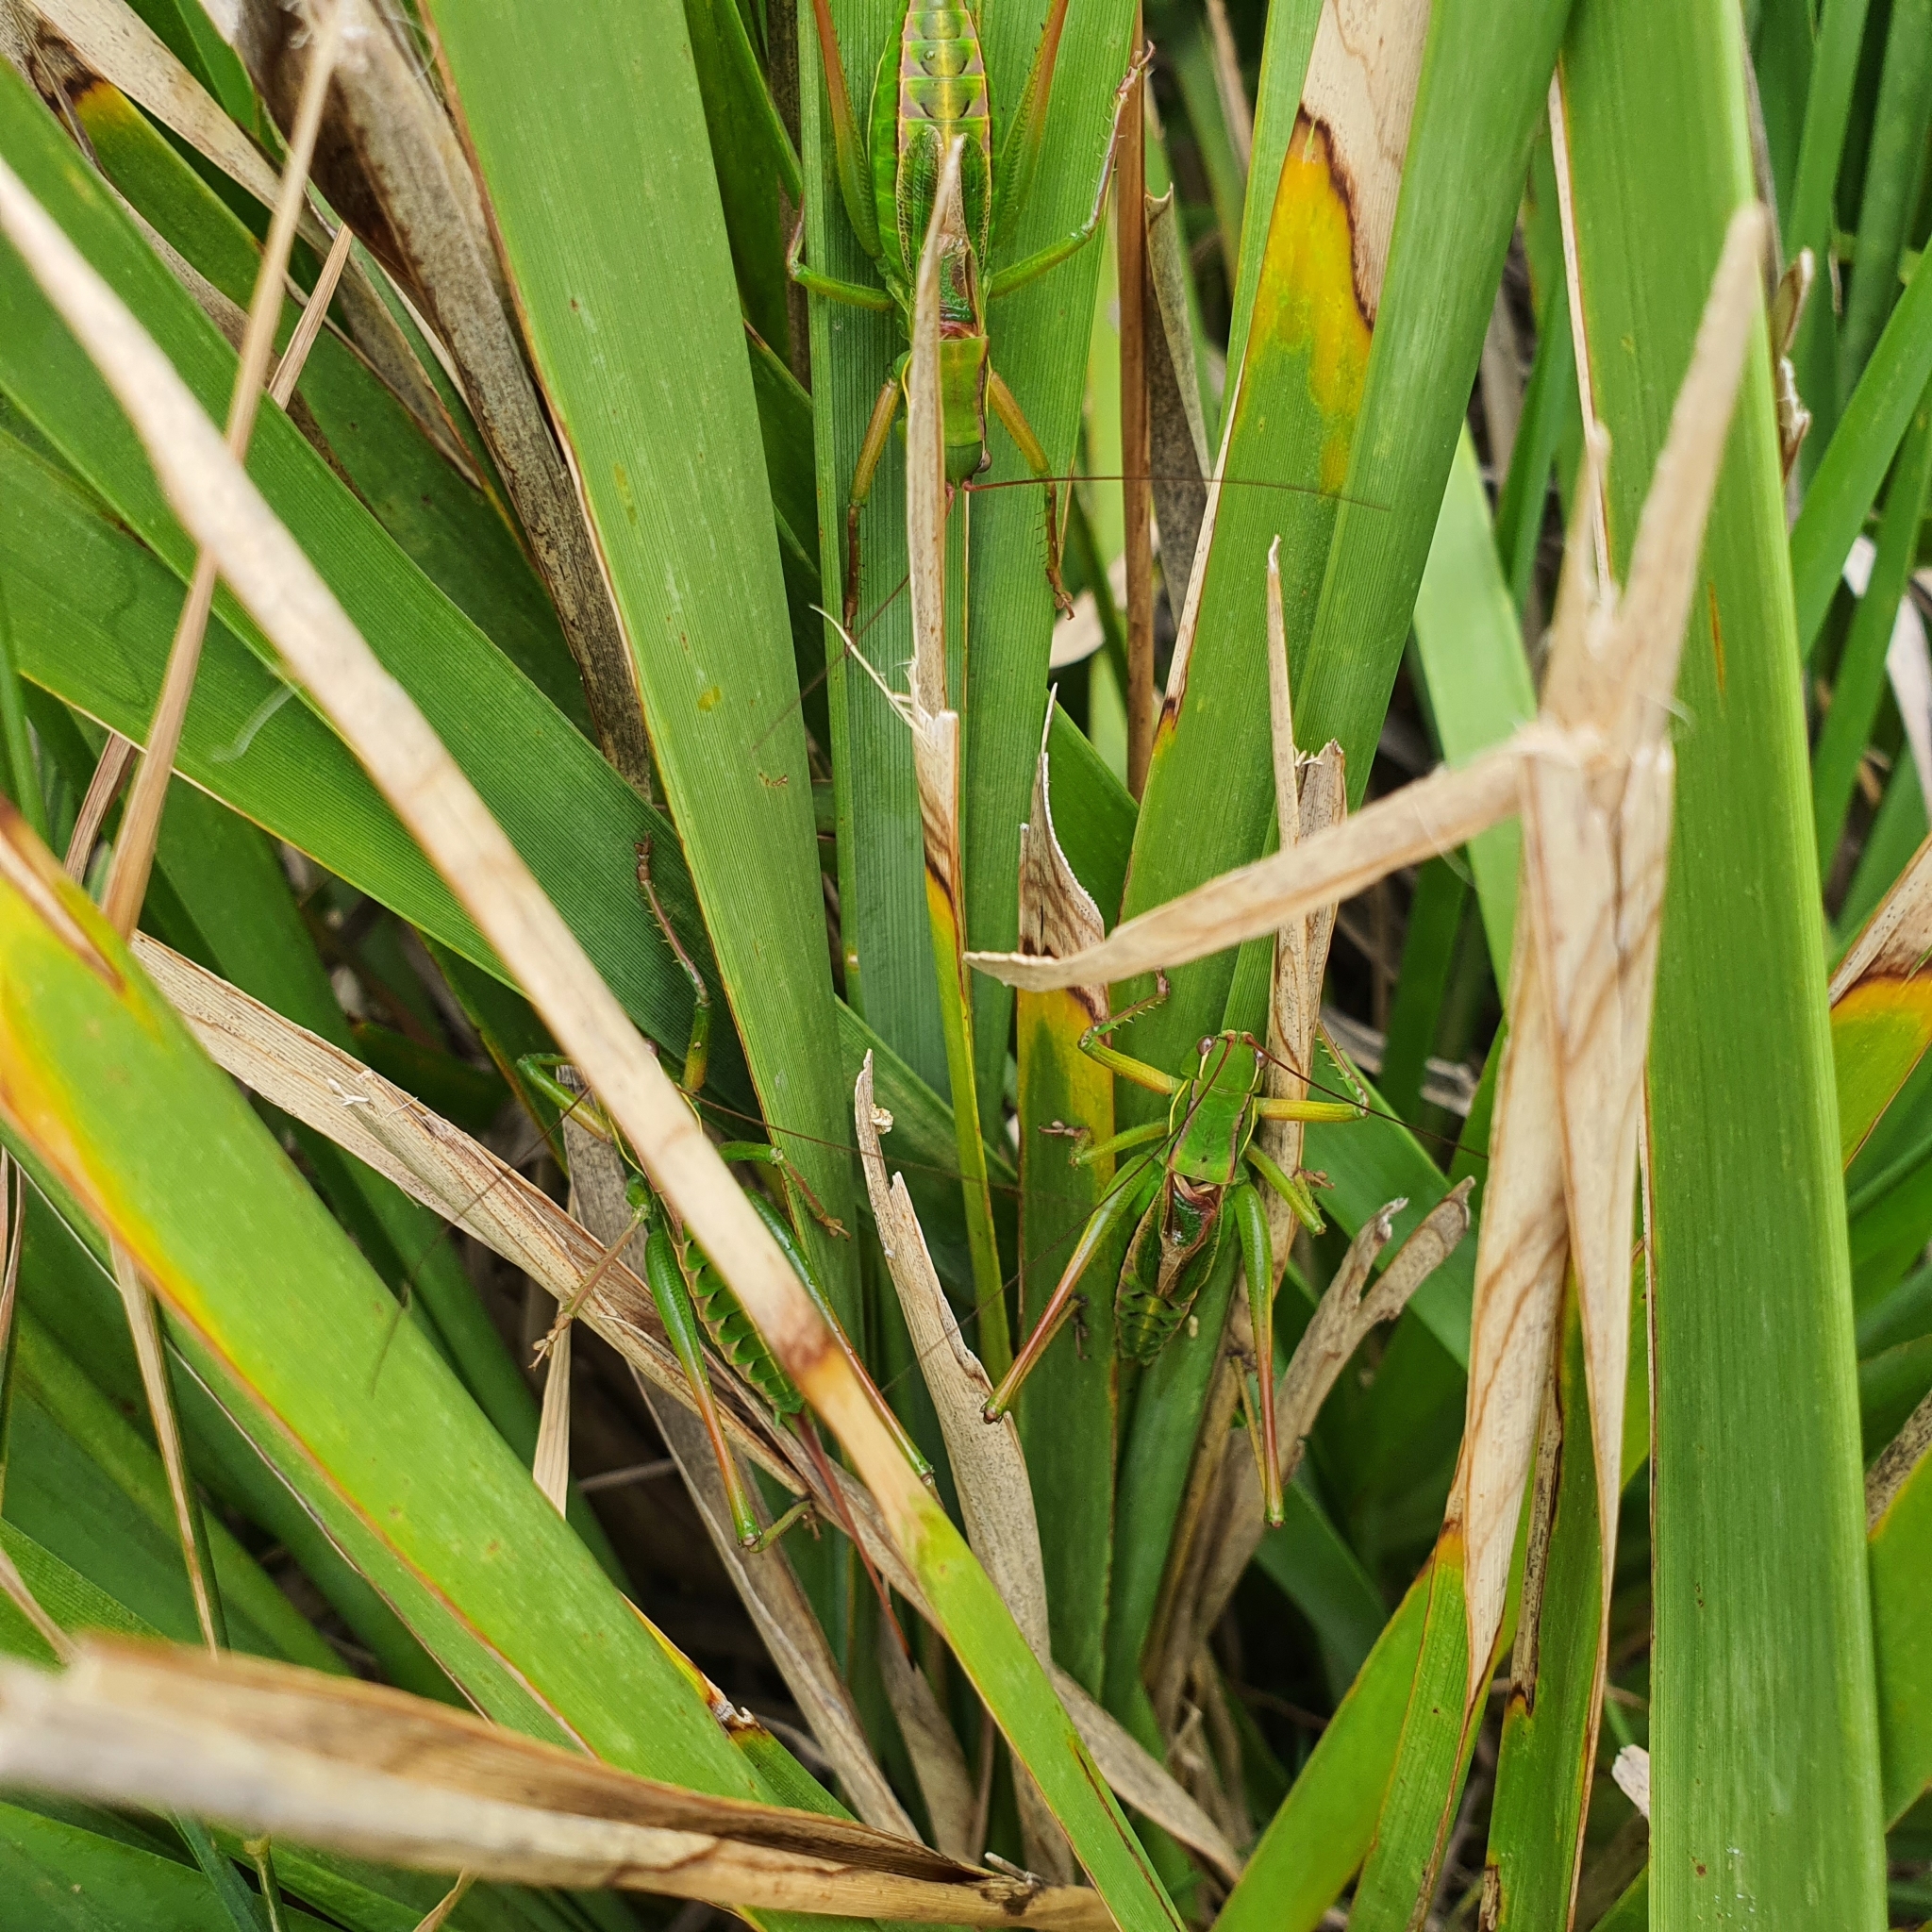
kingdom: Animalia
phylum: Arthropoda
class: Insecta
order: Orthoptera
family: Tettigoniidae
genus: Chlorodectes
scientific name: Chlorodectes loquax
